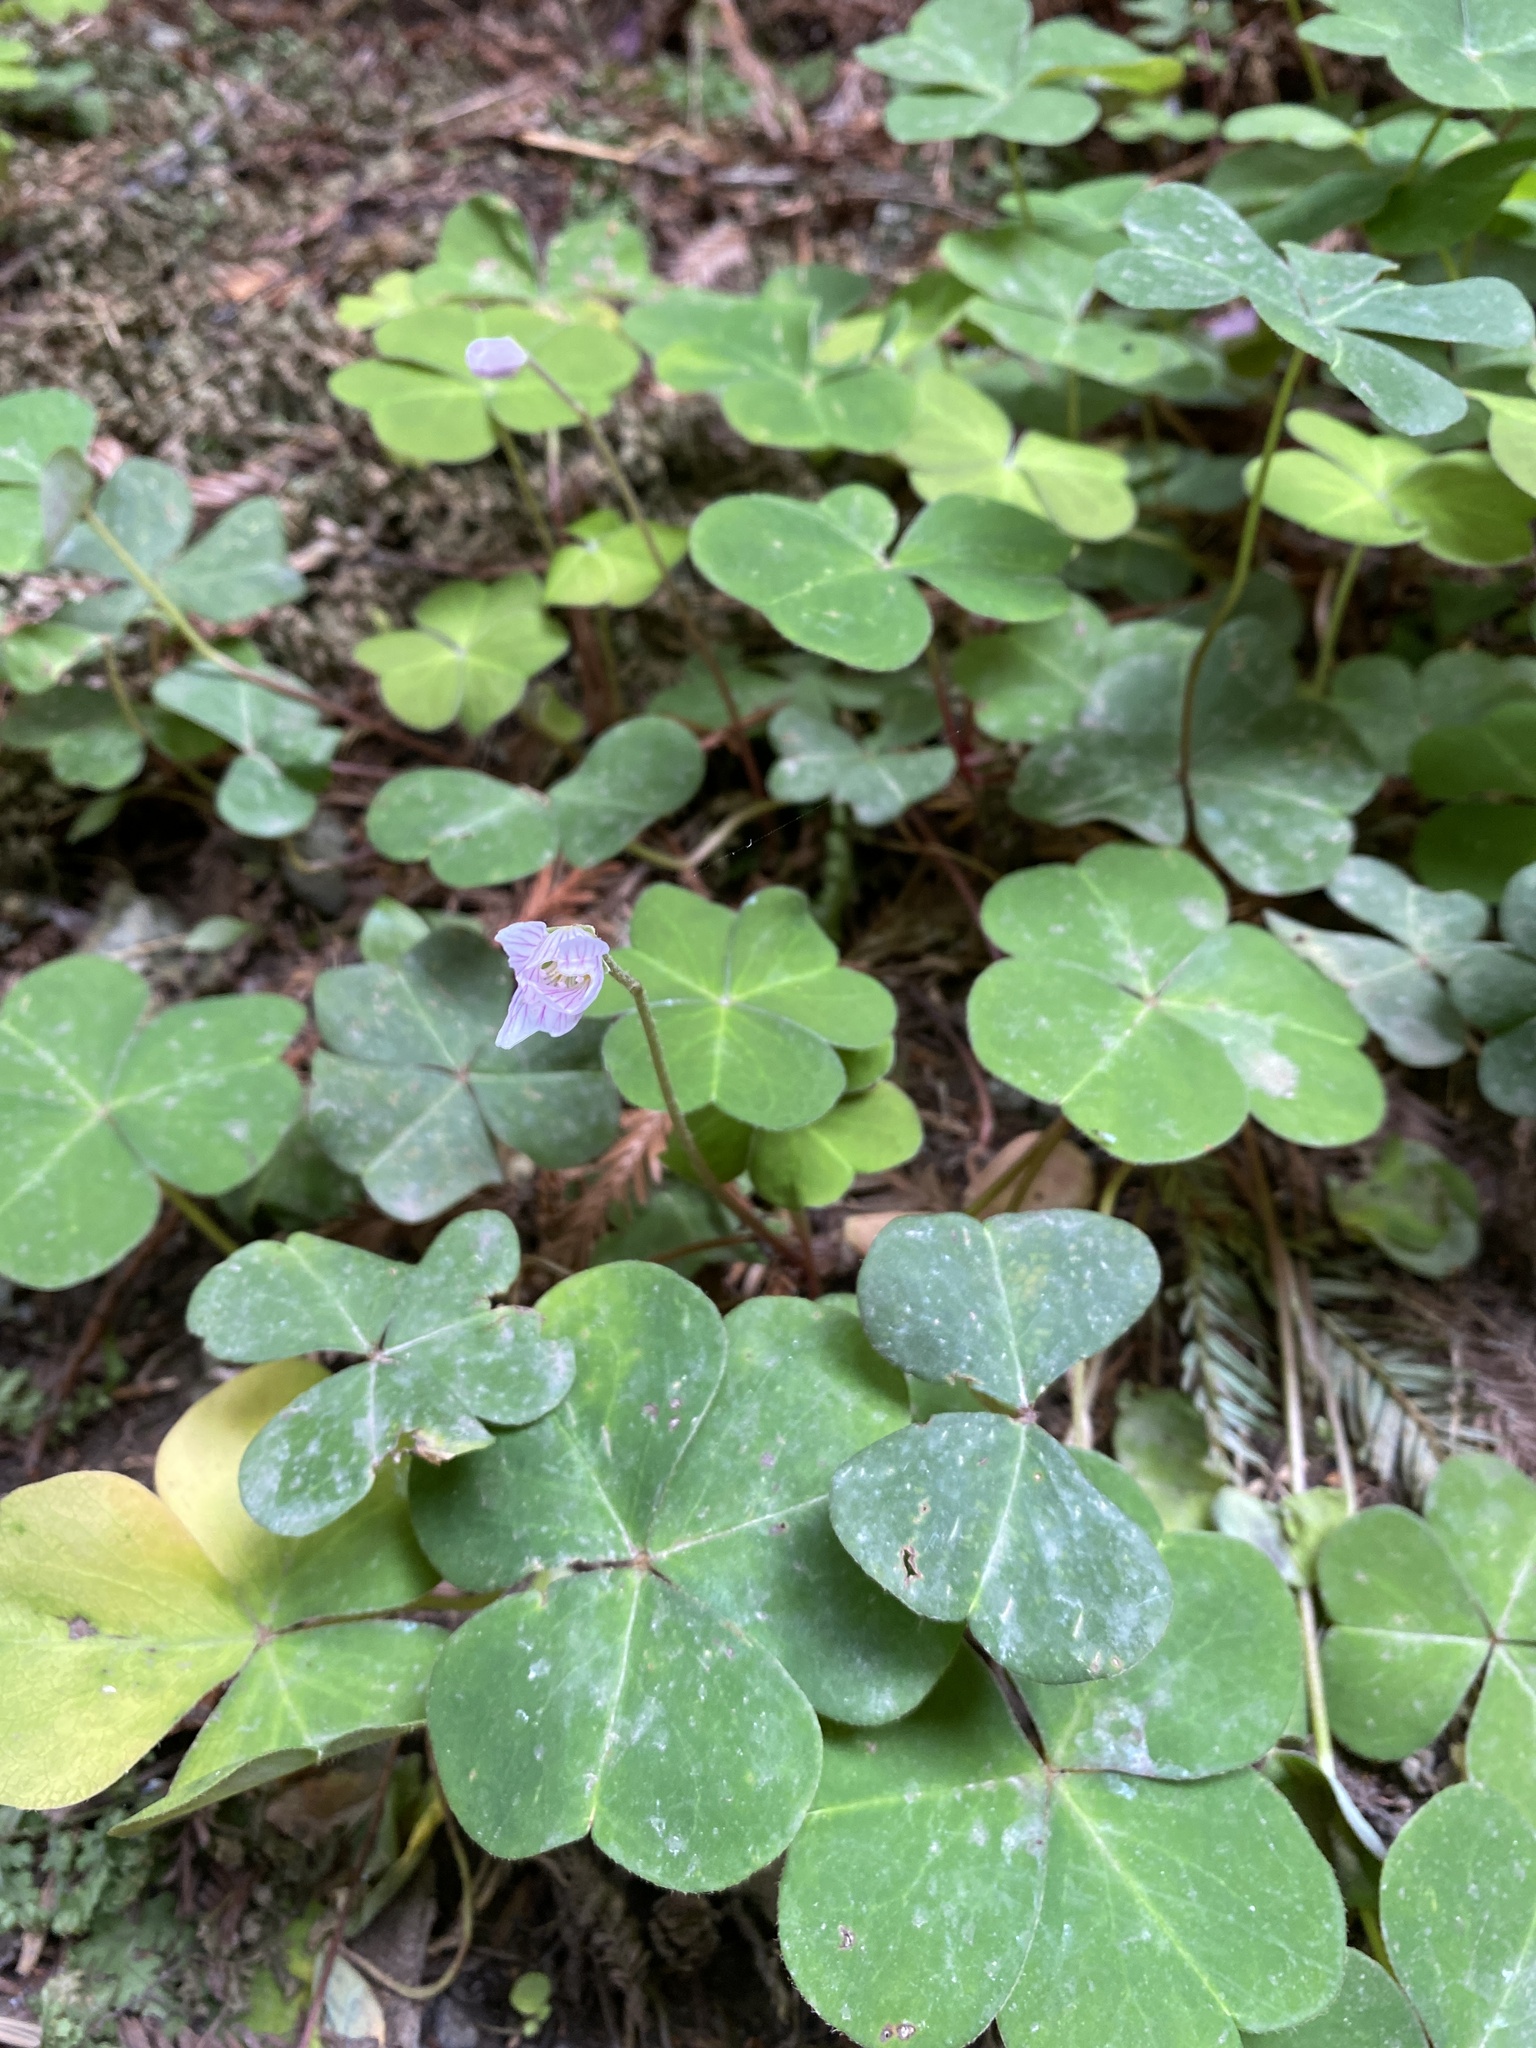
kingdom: Plantae
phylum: Tracheophyta
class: Magnoliopsida
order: Oxalidales
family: Oxalidaceae
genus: Oxalis
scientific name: Oxalis oregana
